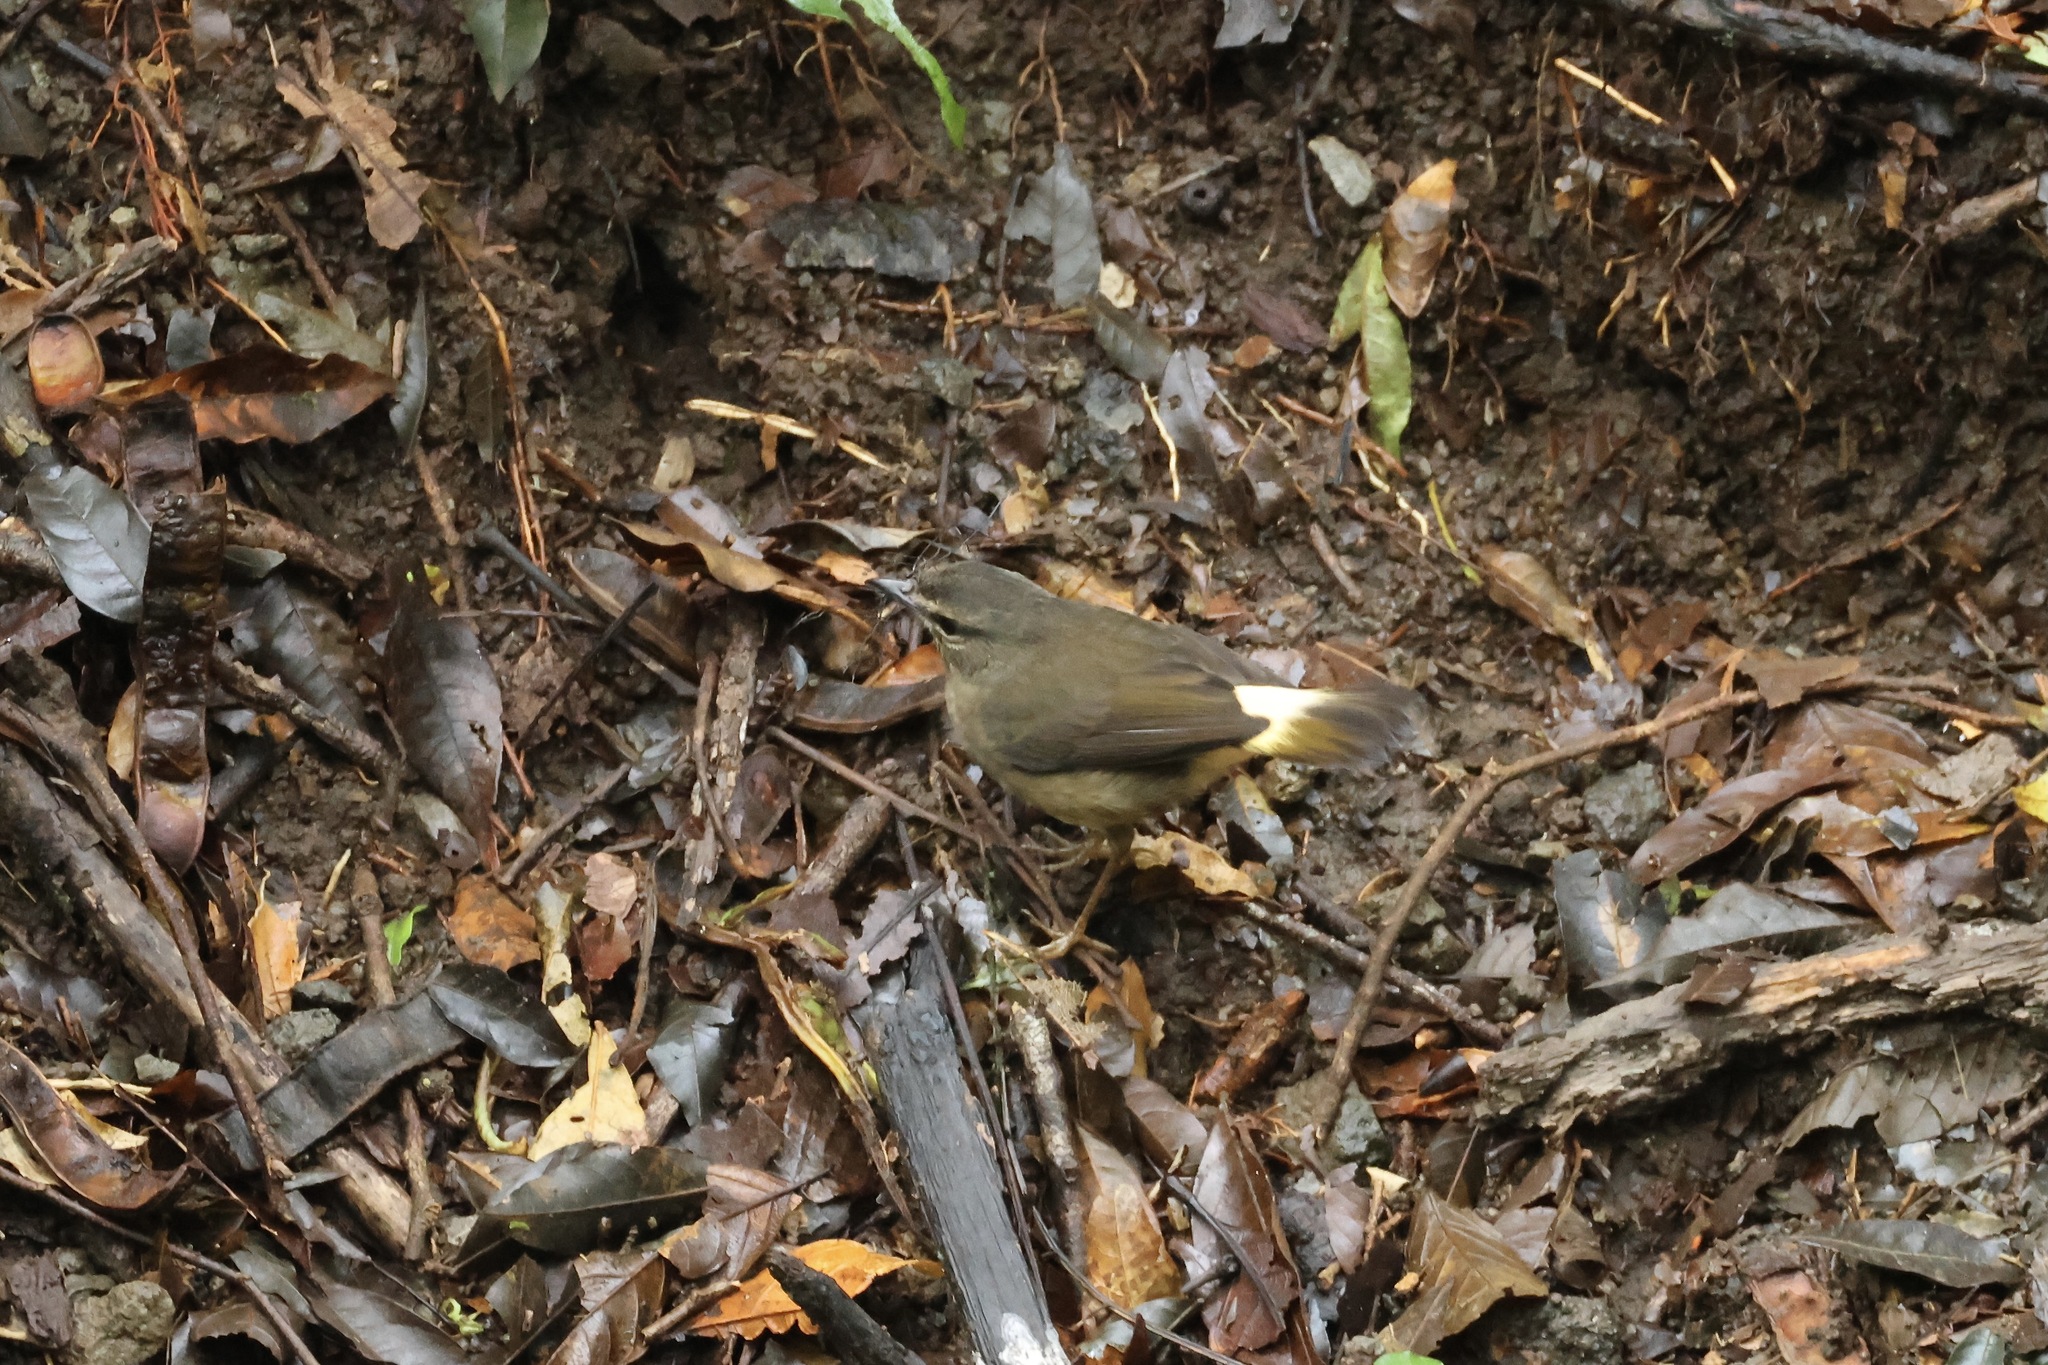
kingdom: Animalia
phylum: Chordata
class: Aves
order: Passeriformes
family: Parulidae
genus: Myiothlypis
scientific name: Myiothlypis fulvicauda
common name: Buff-rumped warbler
